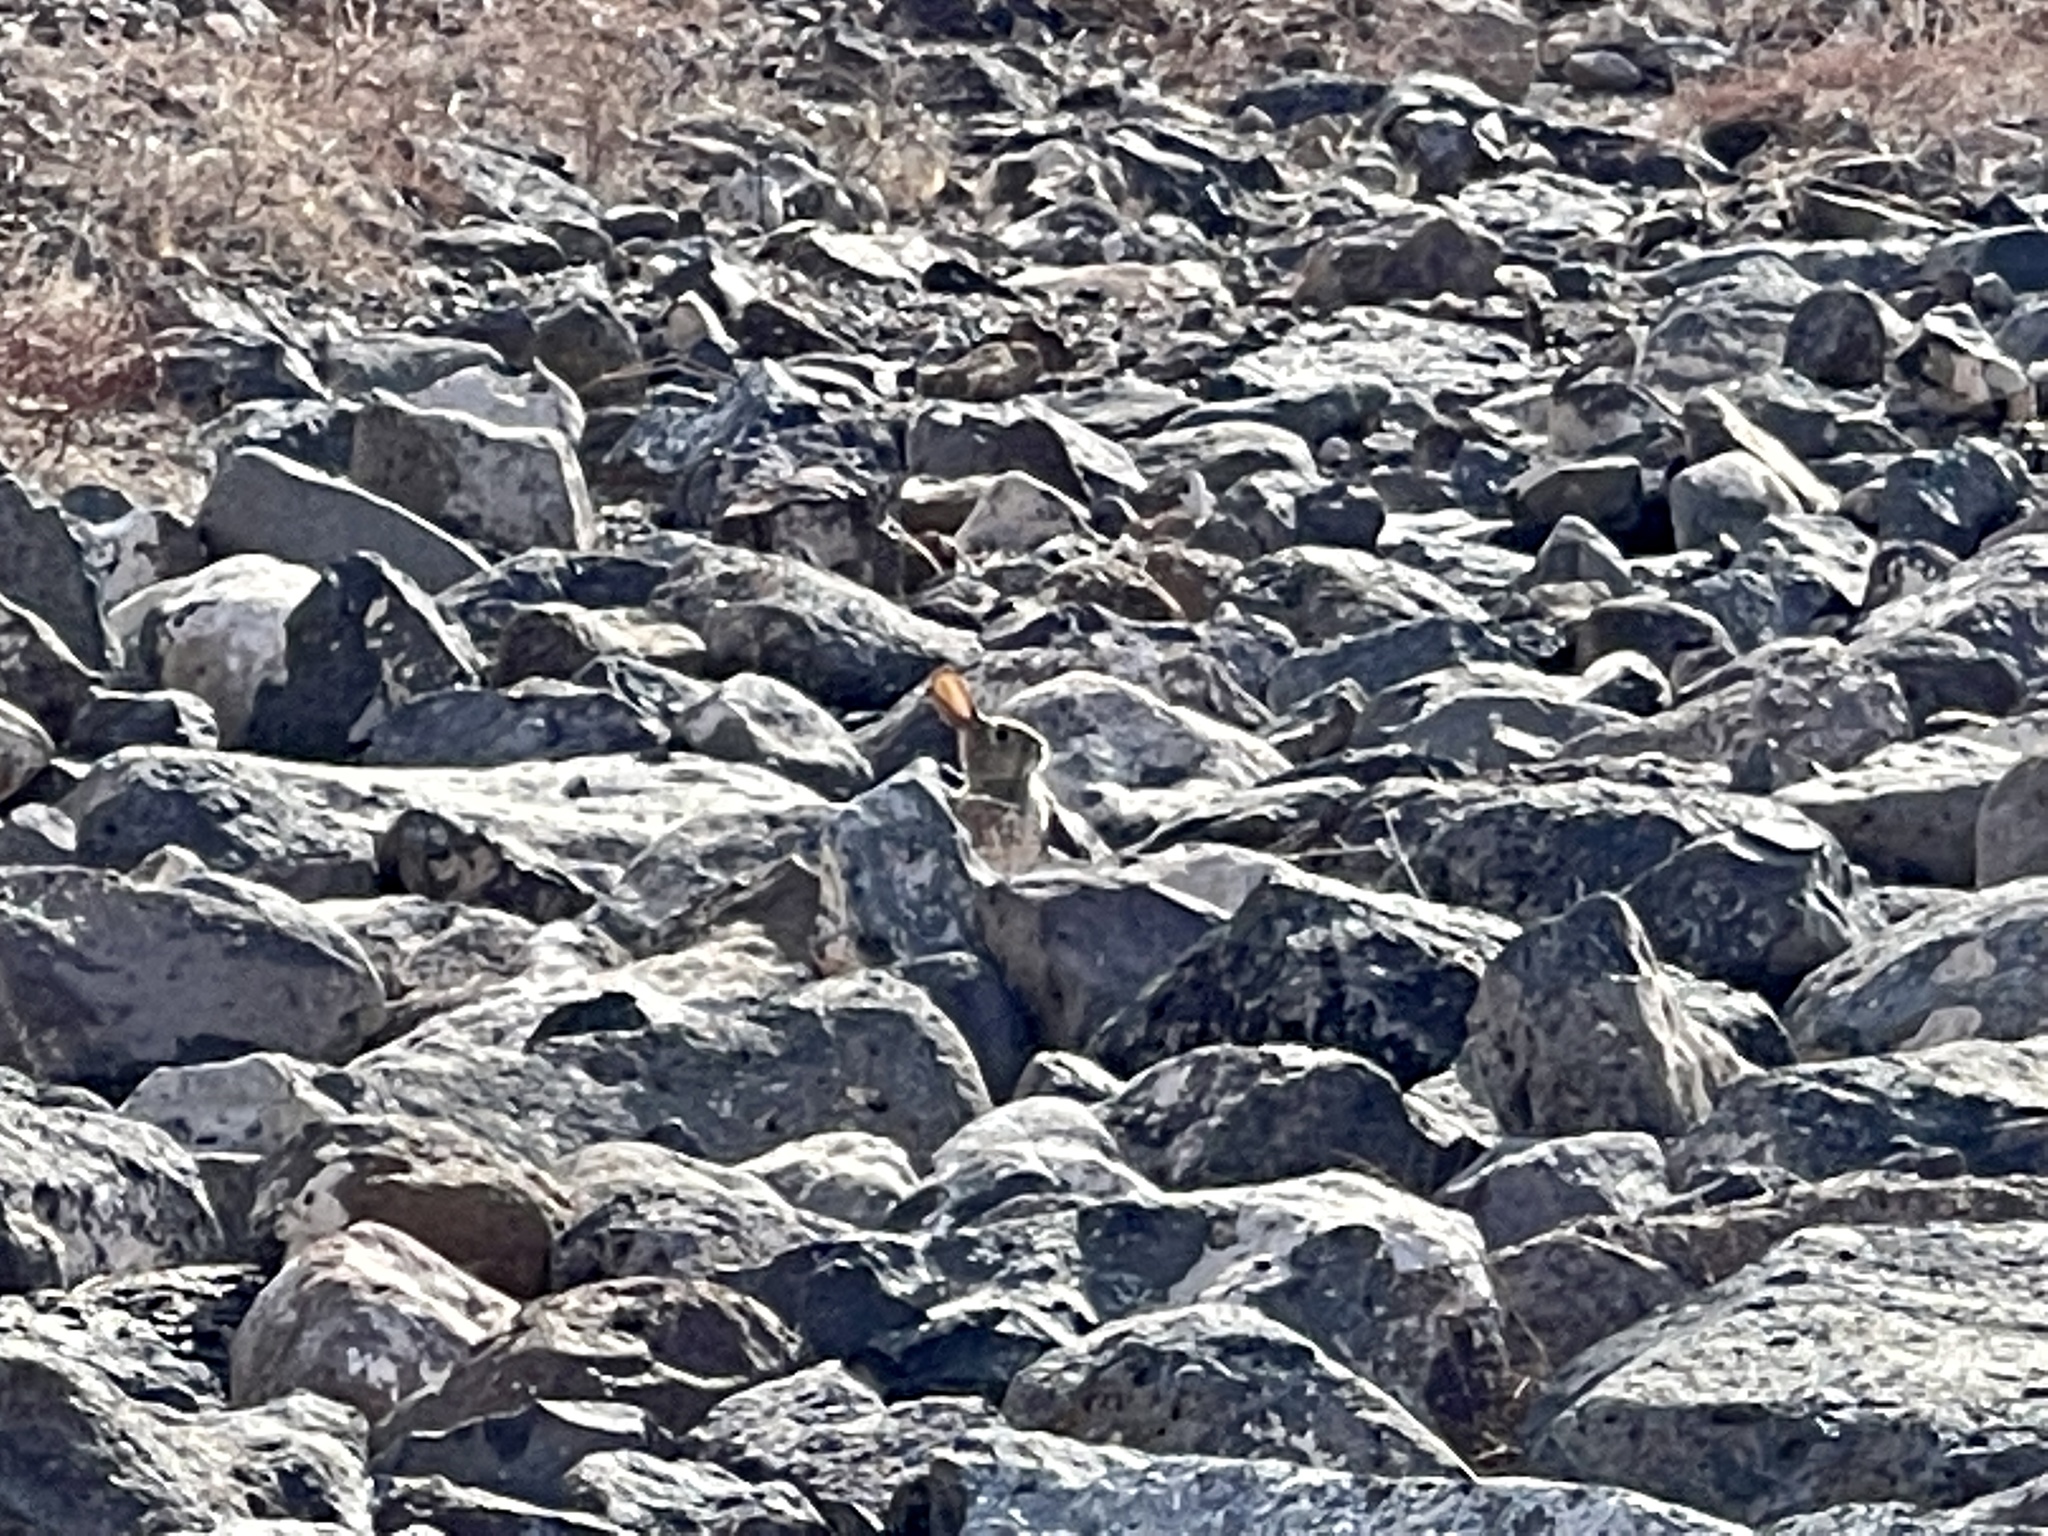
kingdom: Animalia
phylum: Chordata
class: Mammalia
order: Lagomorpha
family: Leporidae
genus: Sylvilagus
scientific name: Sylvilagus audubonii
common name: Desert cottontail
